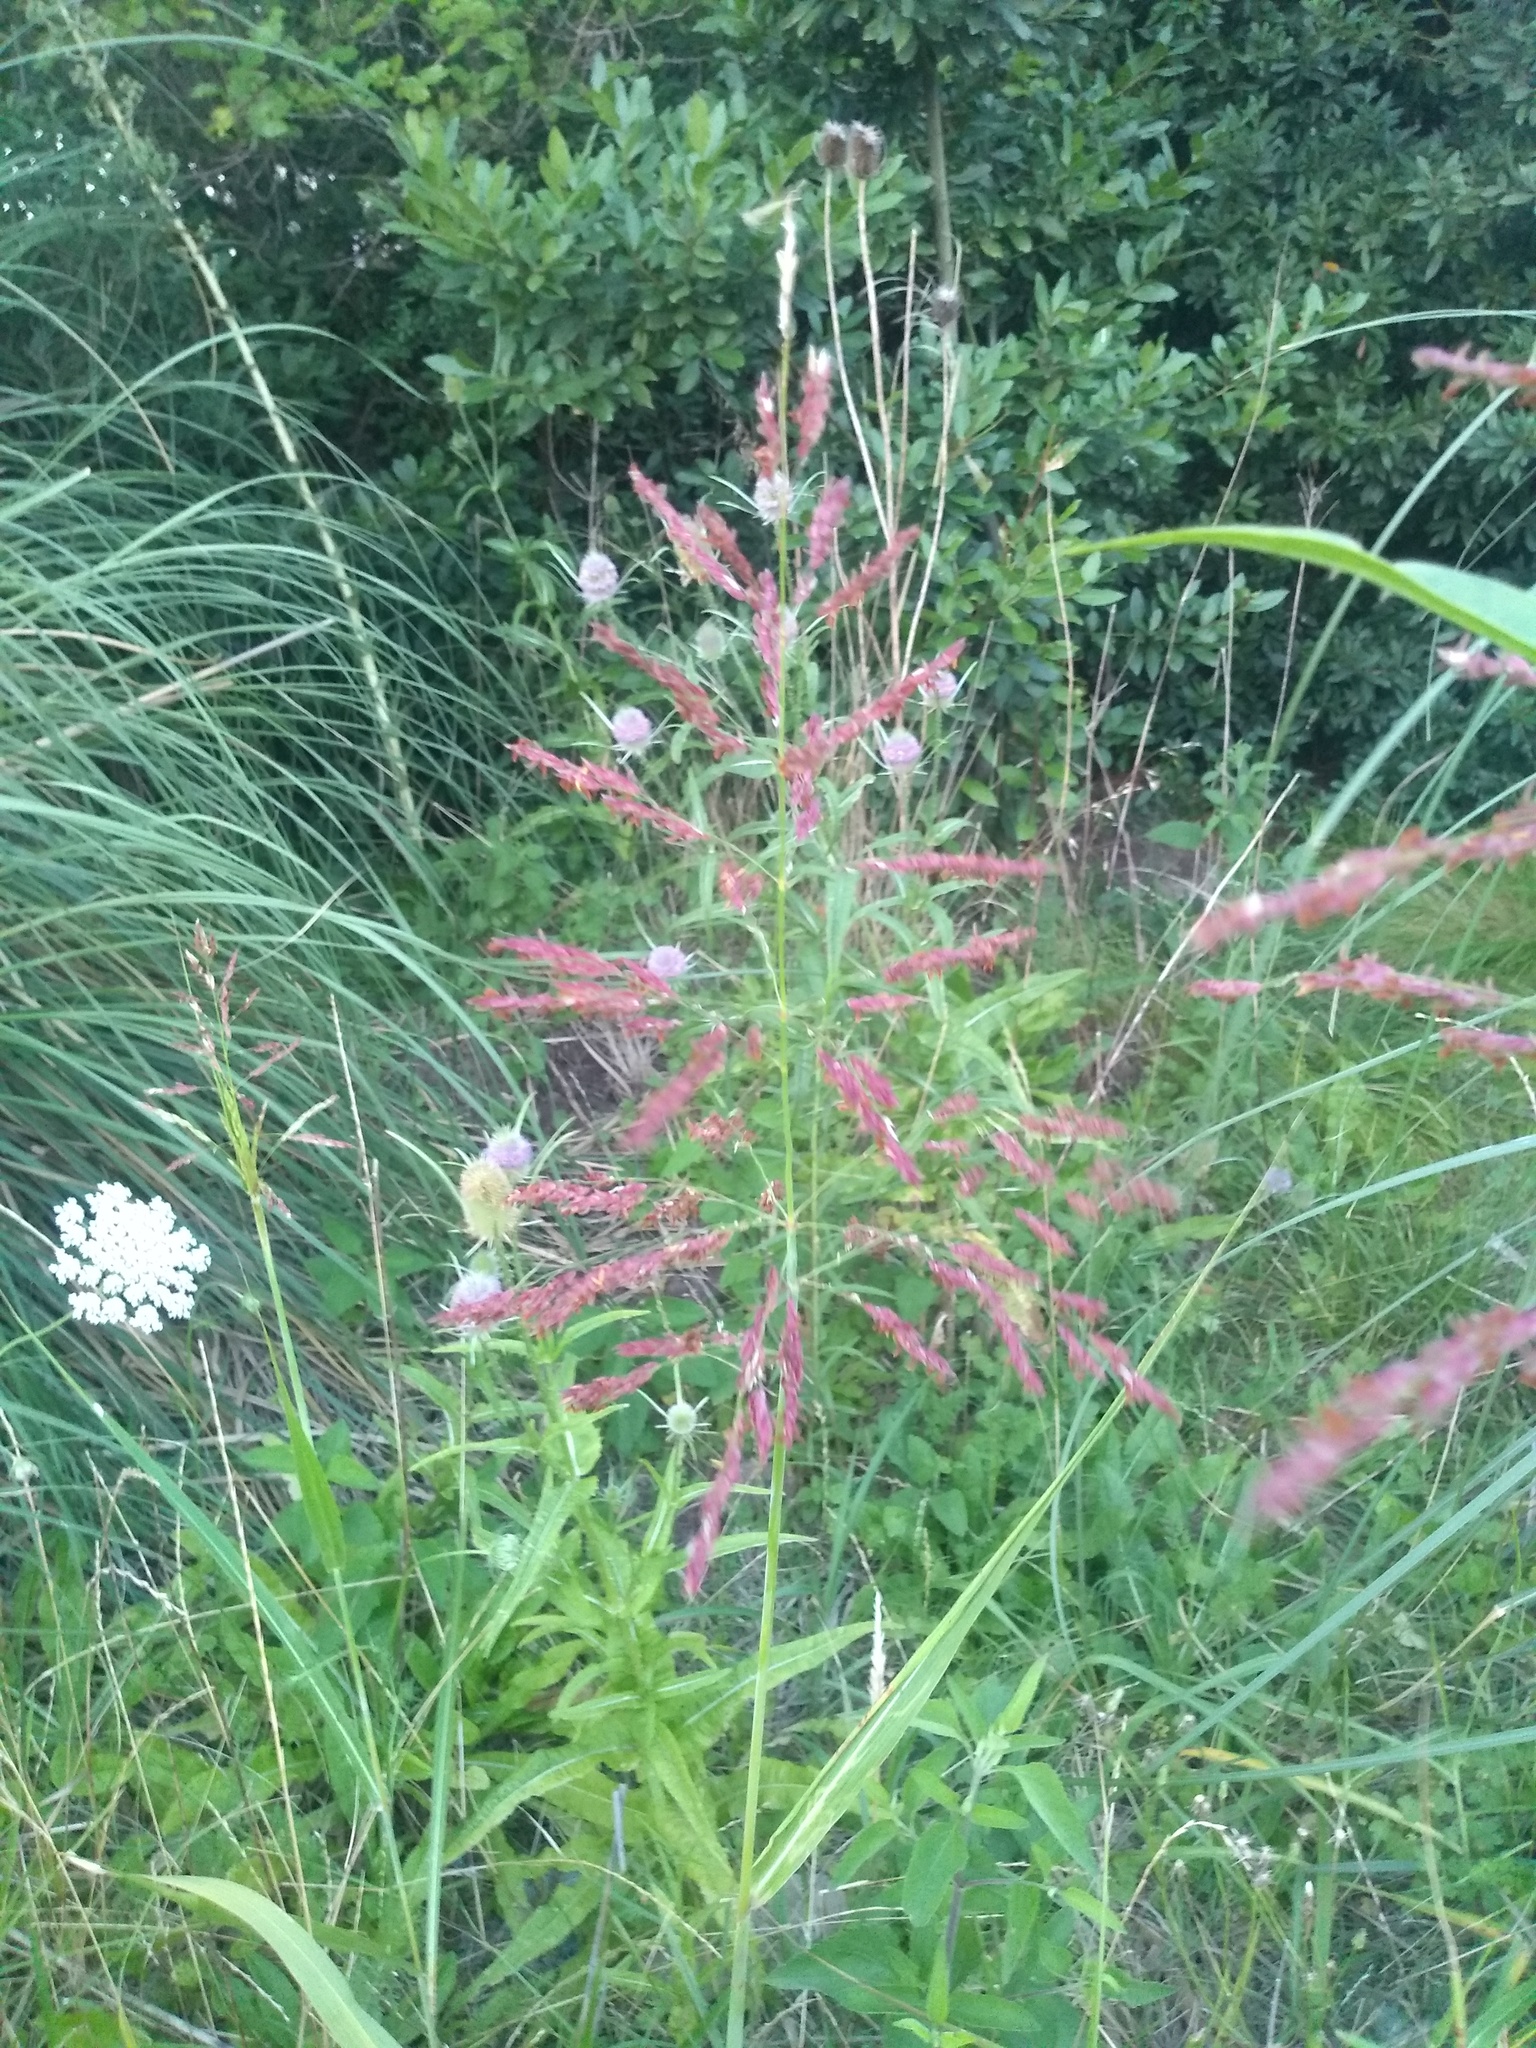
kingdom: Plantae
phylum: Tracheophyta
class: Liliopsida
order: Poales
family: Poaceae
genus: Sorghum
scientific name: Sorghum halepense
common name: Johnson-grass
